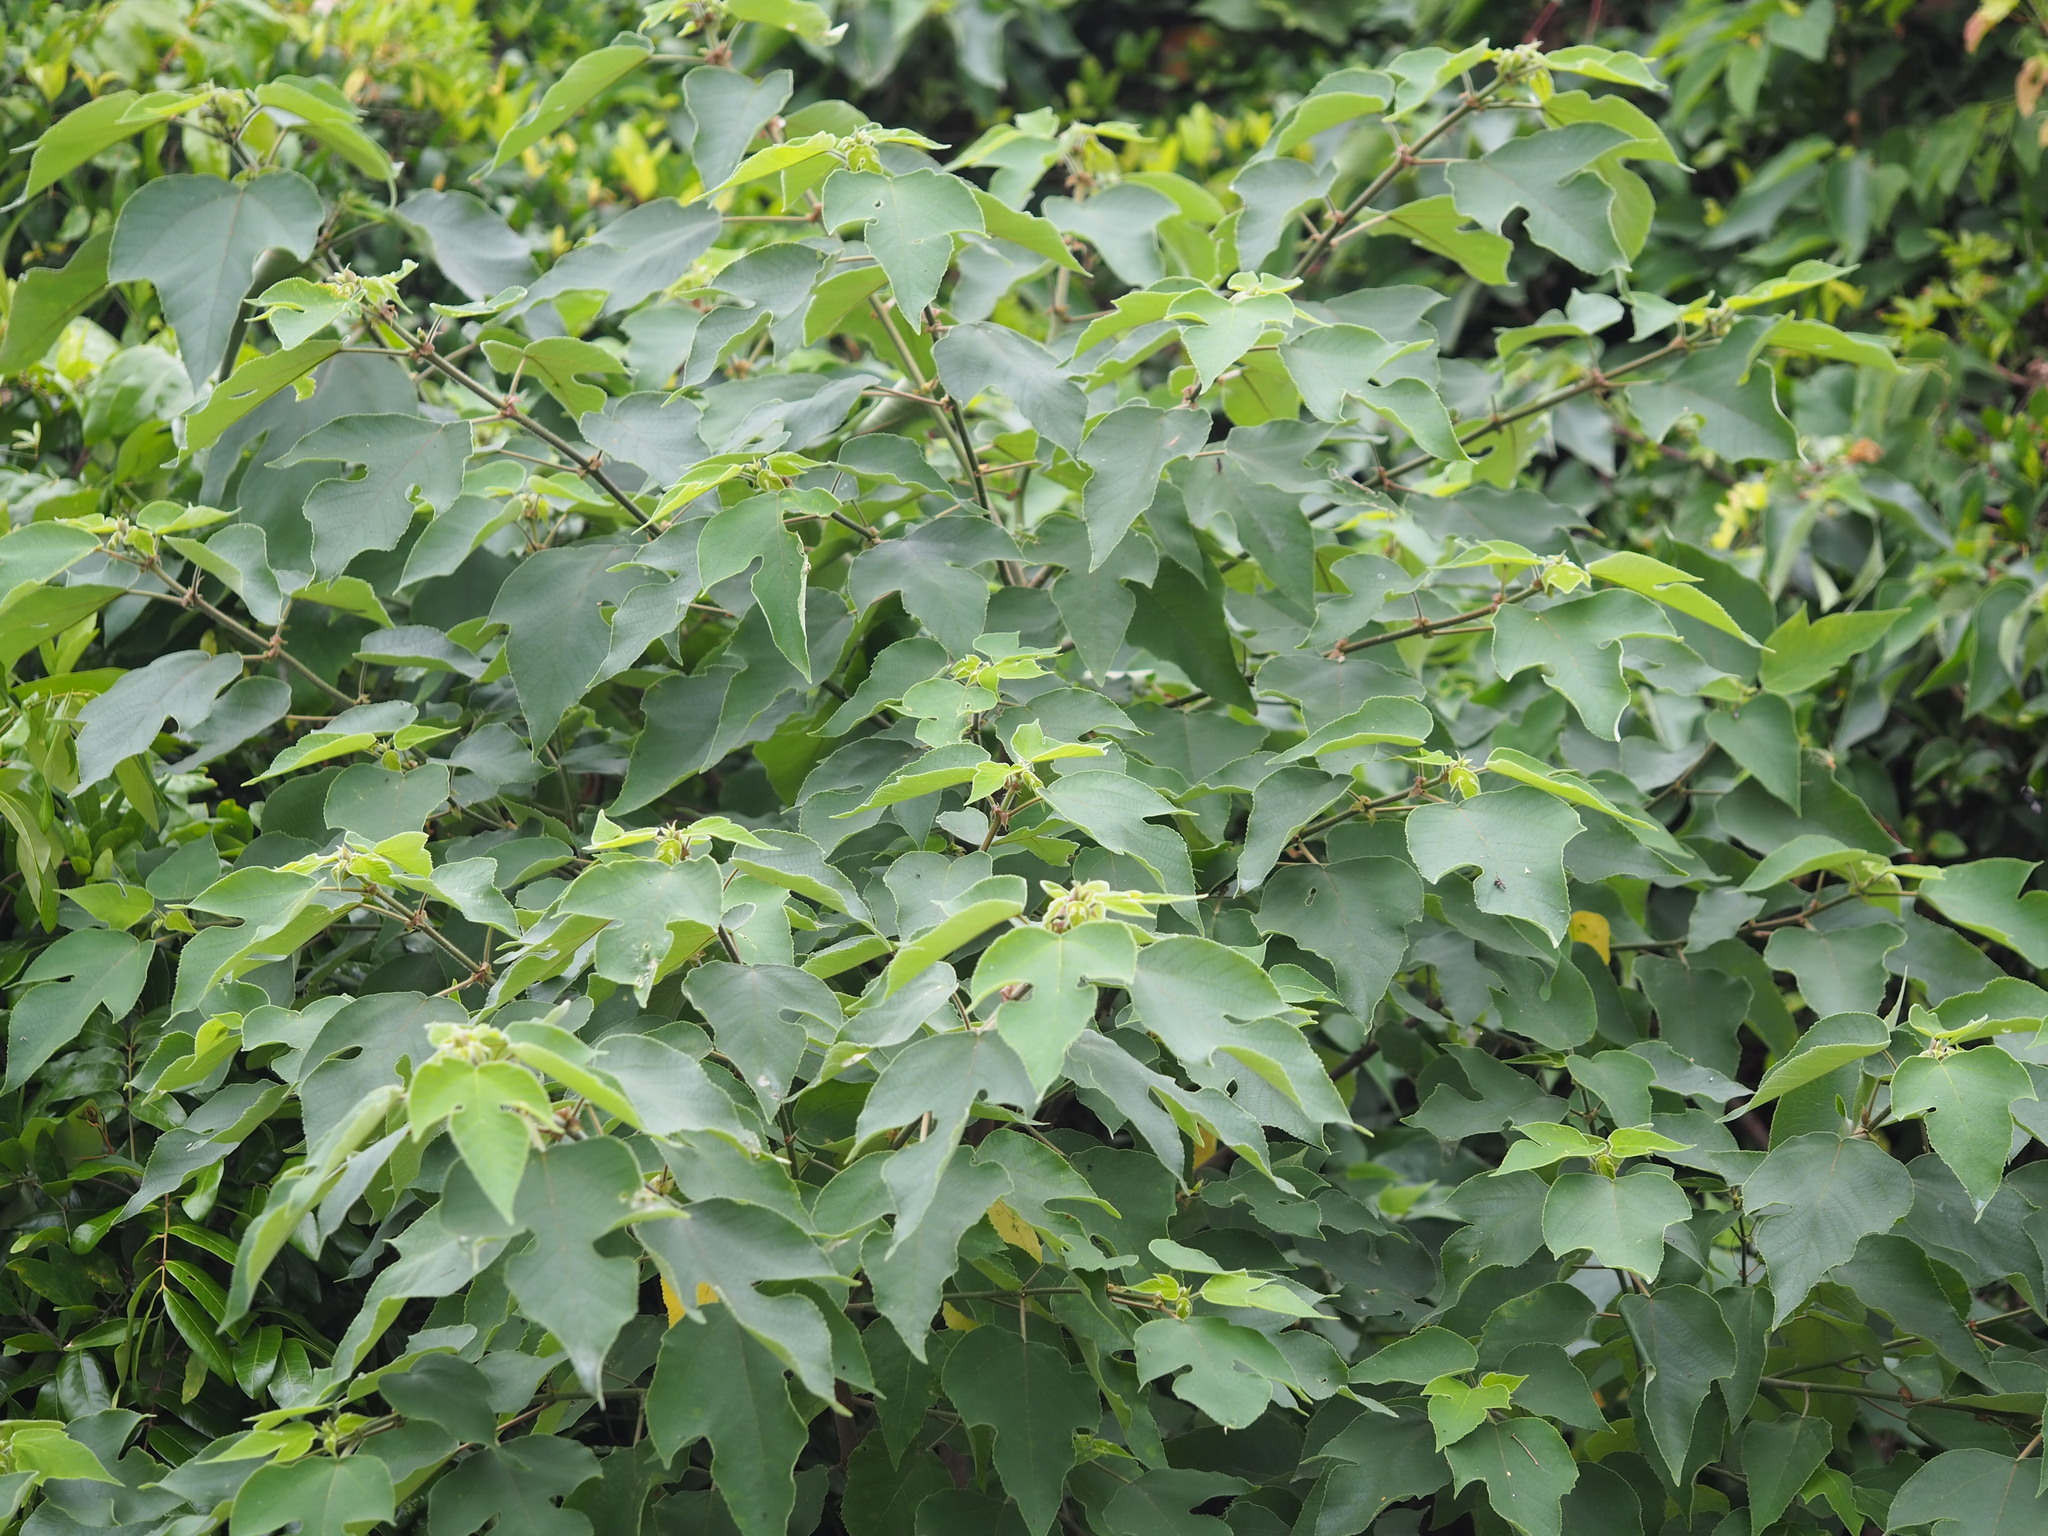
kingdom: Plantae
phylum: Tracheophyta
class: Magnoliopsida
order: Rosales
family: Moraceae
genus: Broussonetia
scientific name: Broussonetia papyrifera
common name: Paper mulberry
